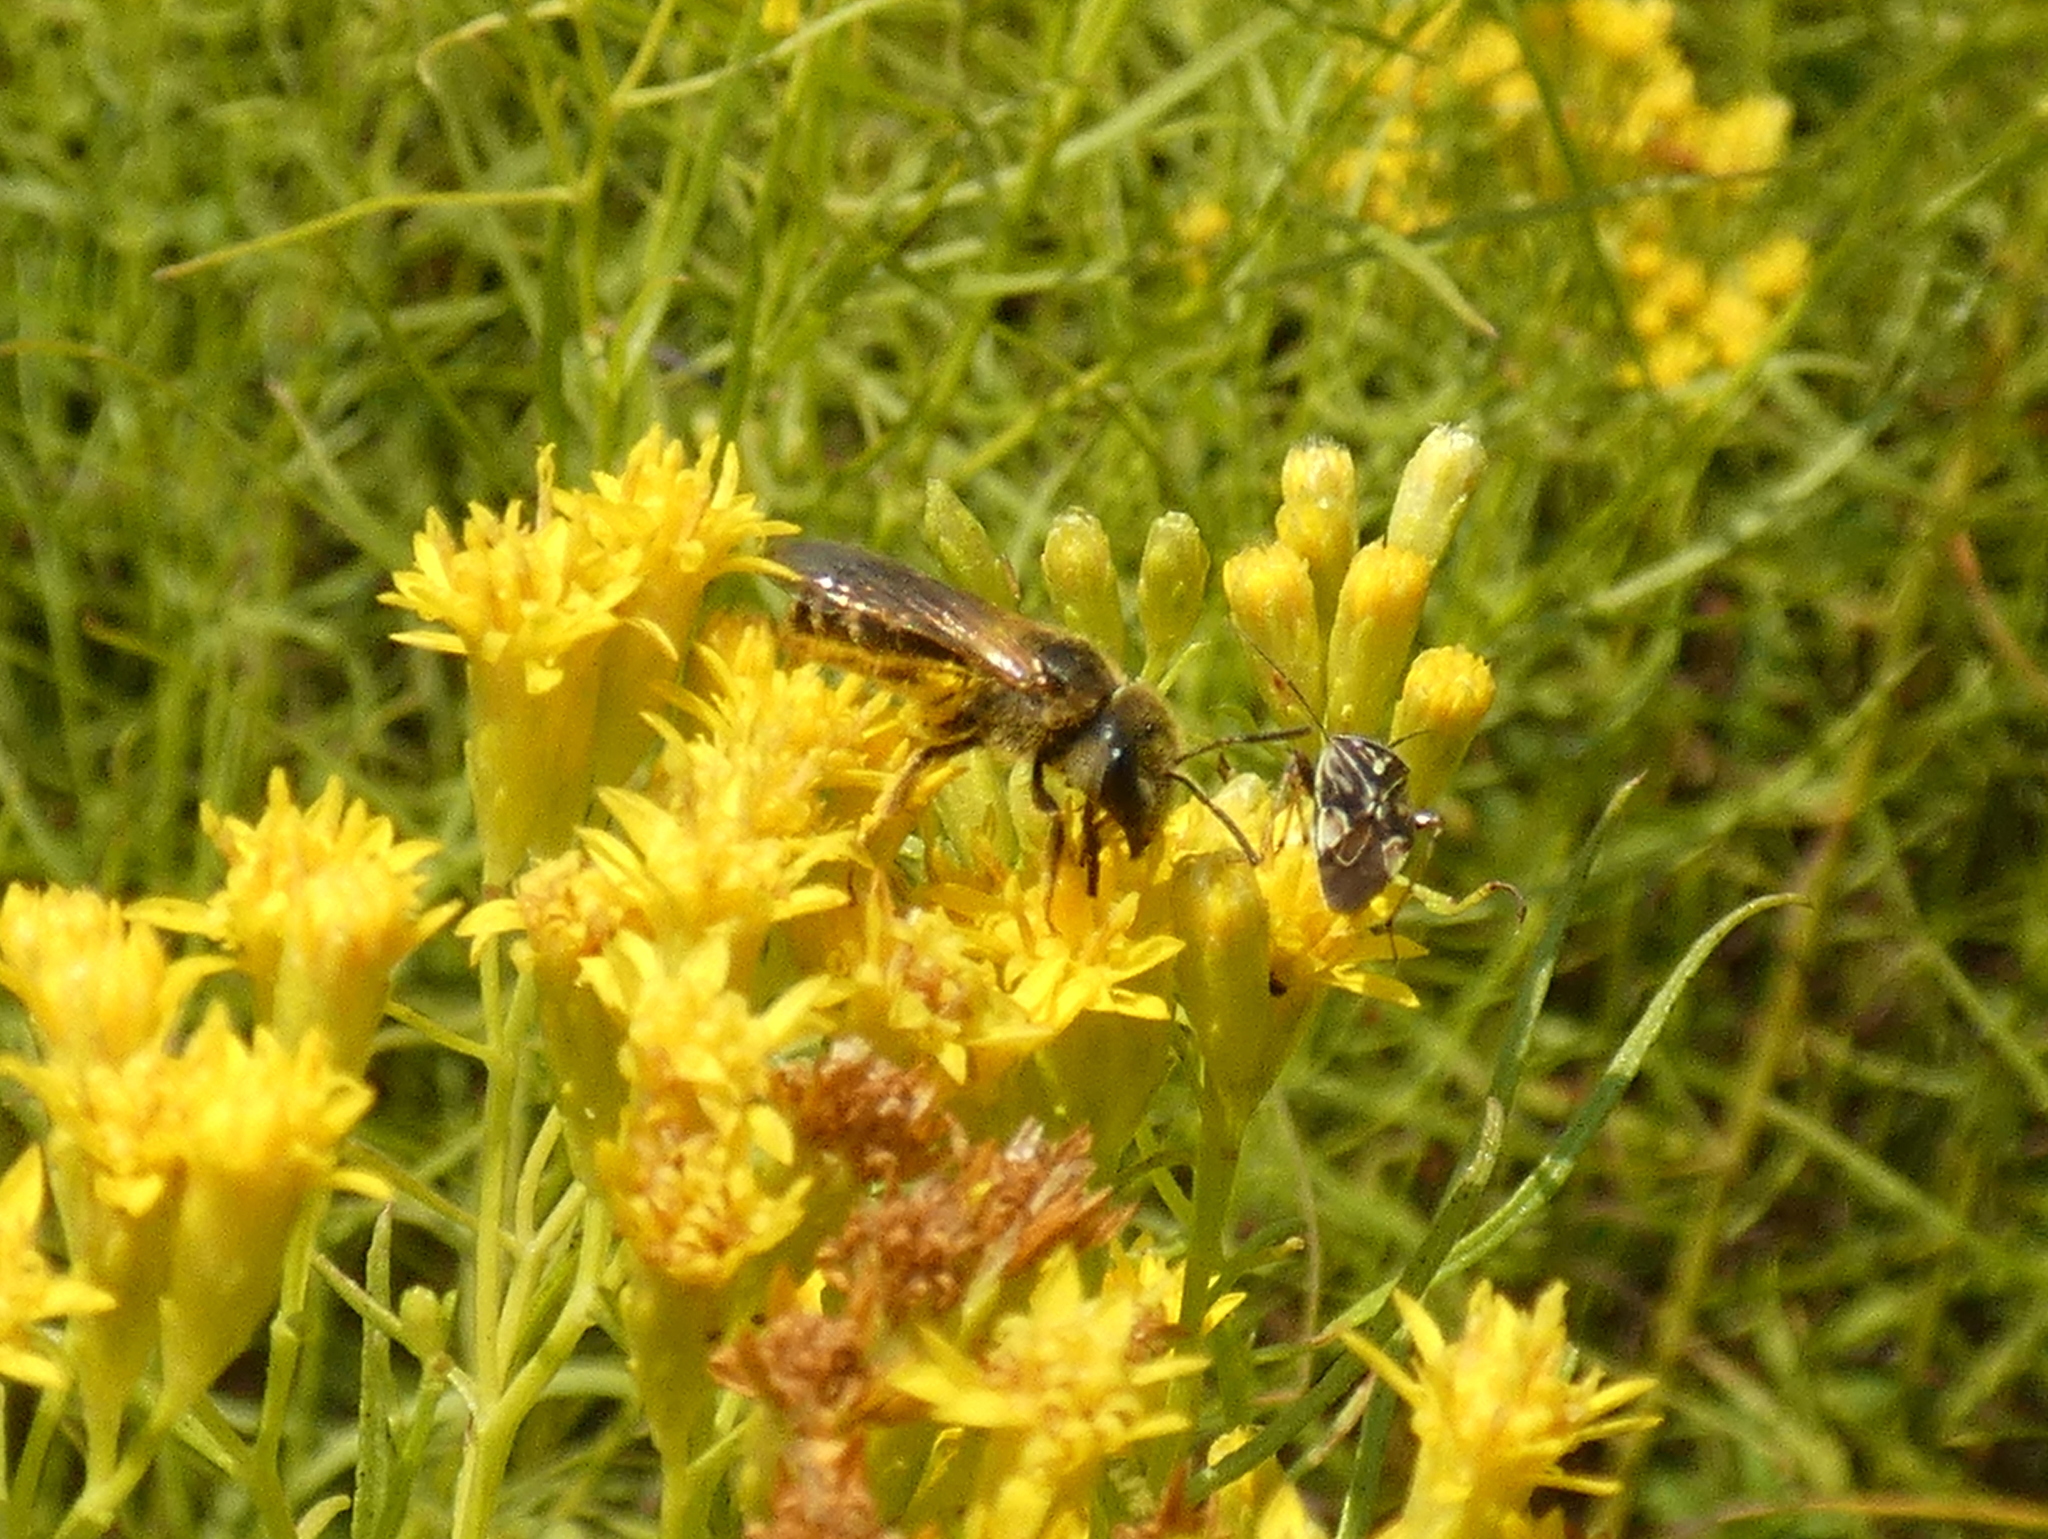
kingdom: Animalia
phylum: Arthropoda
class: Insecta
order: Hymenoptera
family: Halictidae
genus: Halictus
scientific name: Halictus ligatus
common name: Ligated furrow bee
